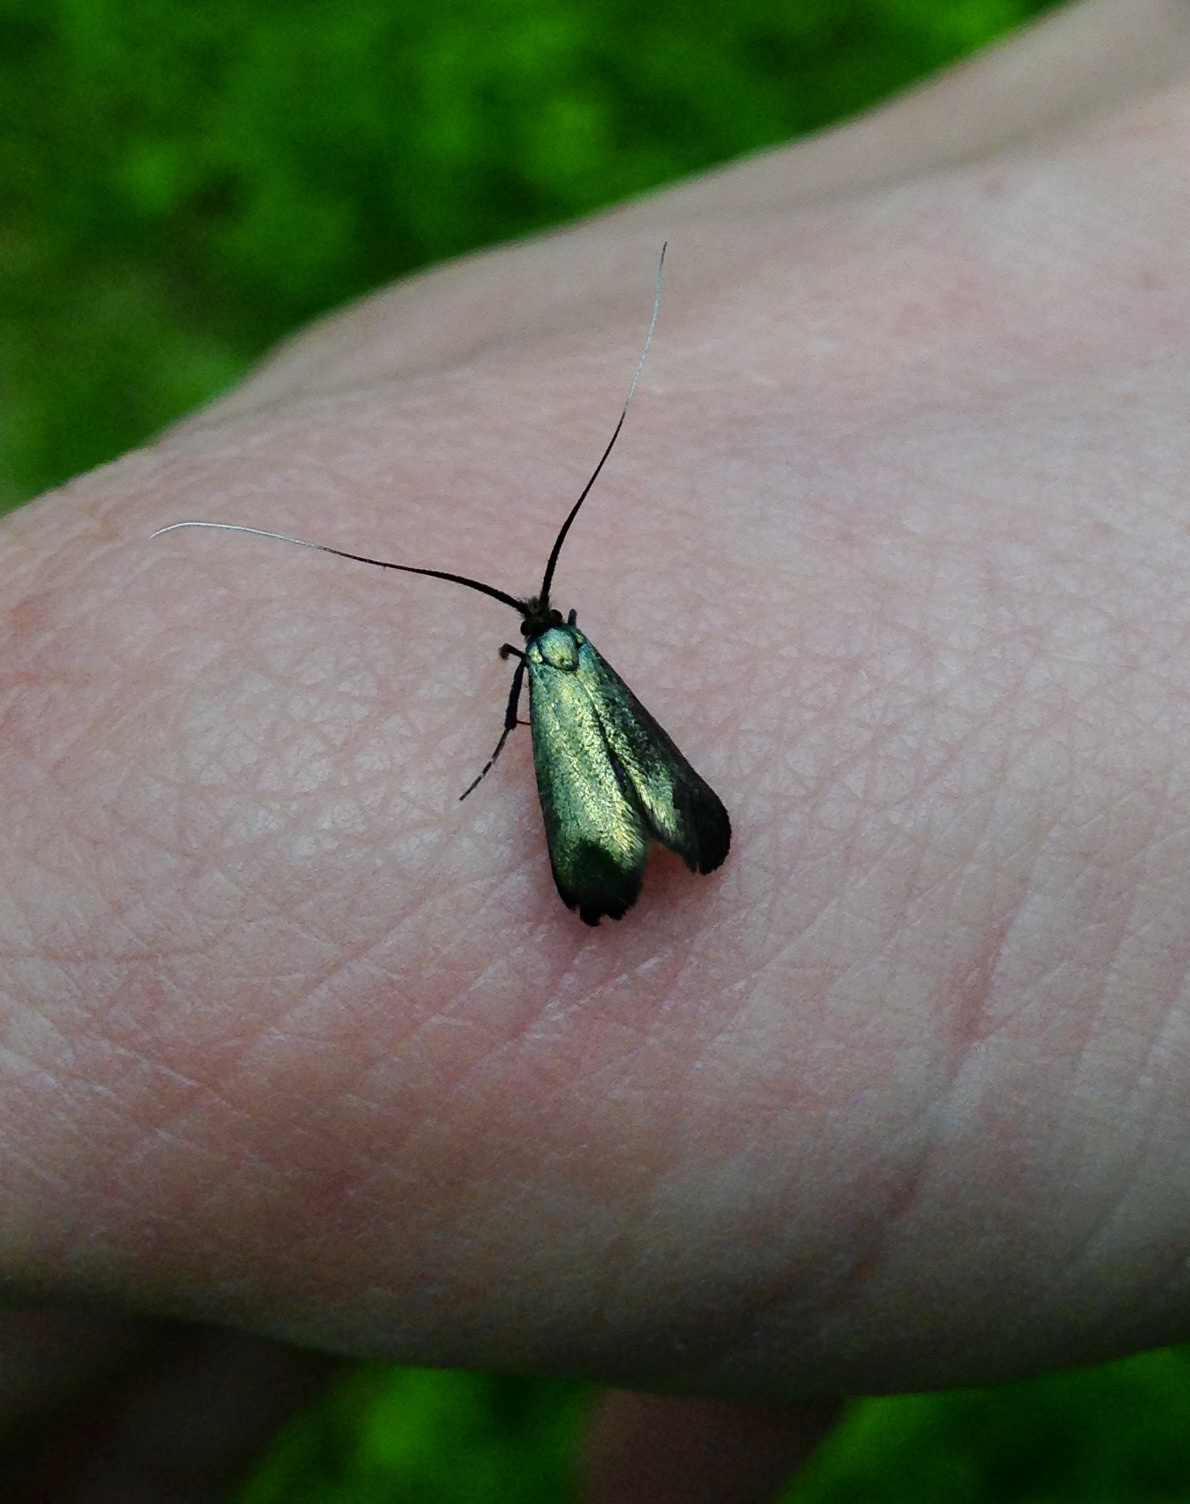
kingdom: Animalia
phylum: Arthropoda
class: Insecta
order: Lepidoptera
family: Zygaenidae
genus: Adscita
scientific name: Adscita statices
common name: Forester
